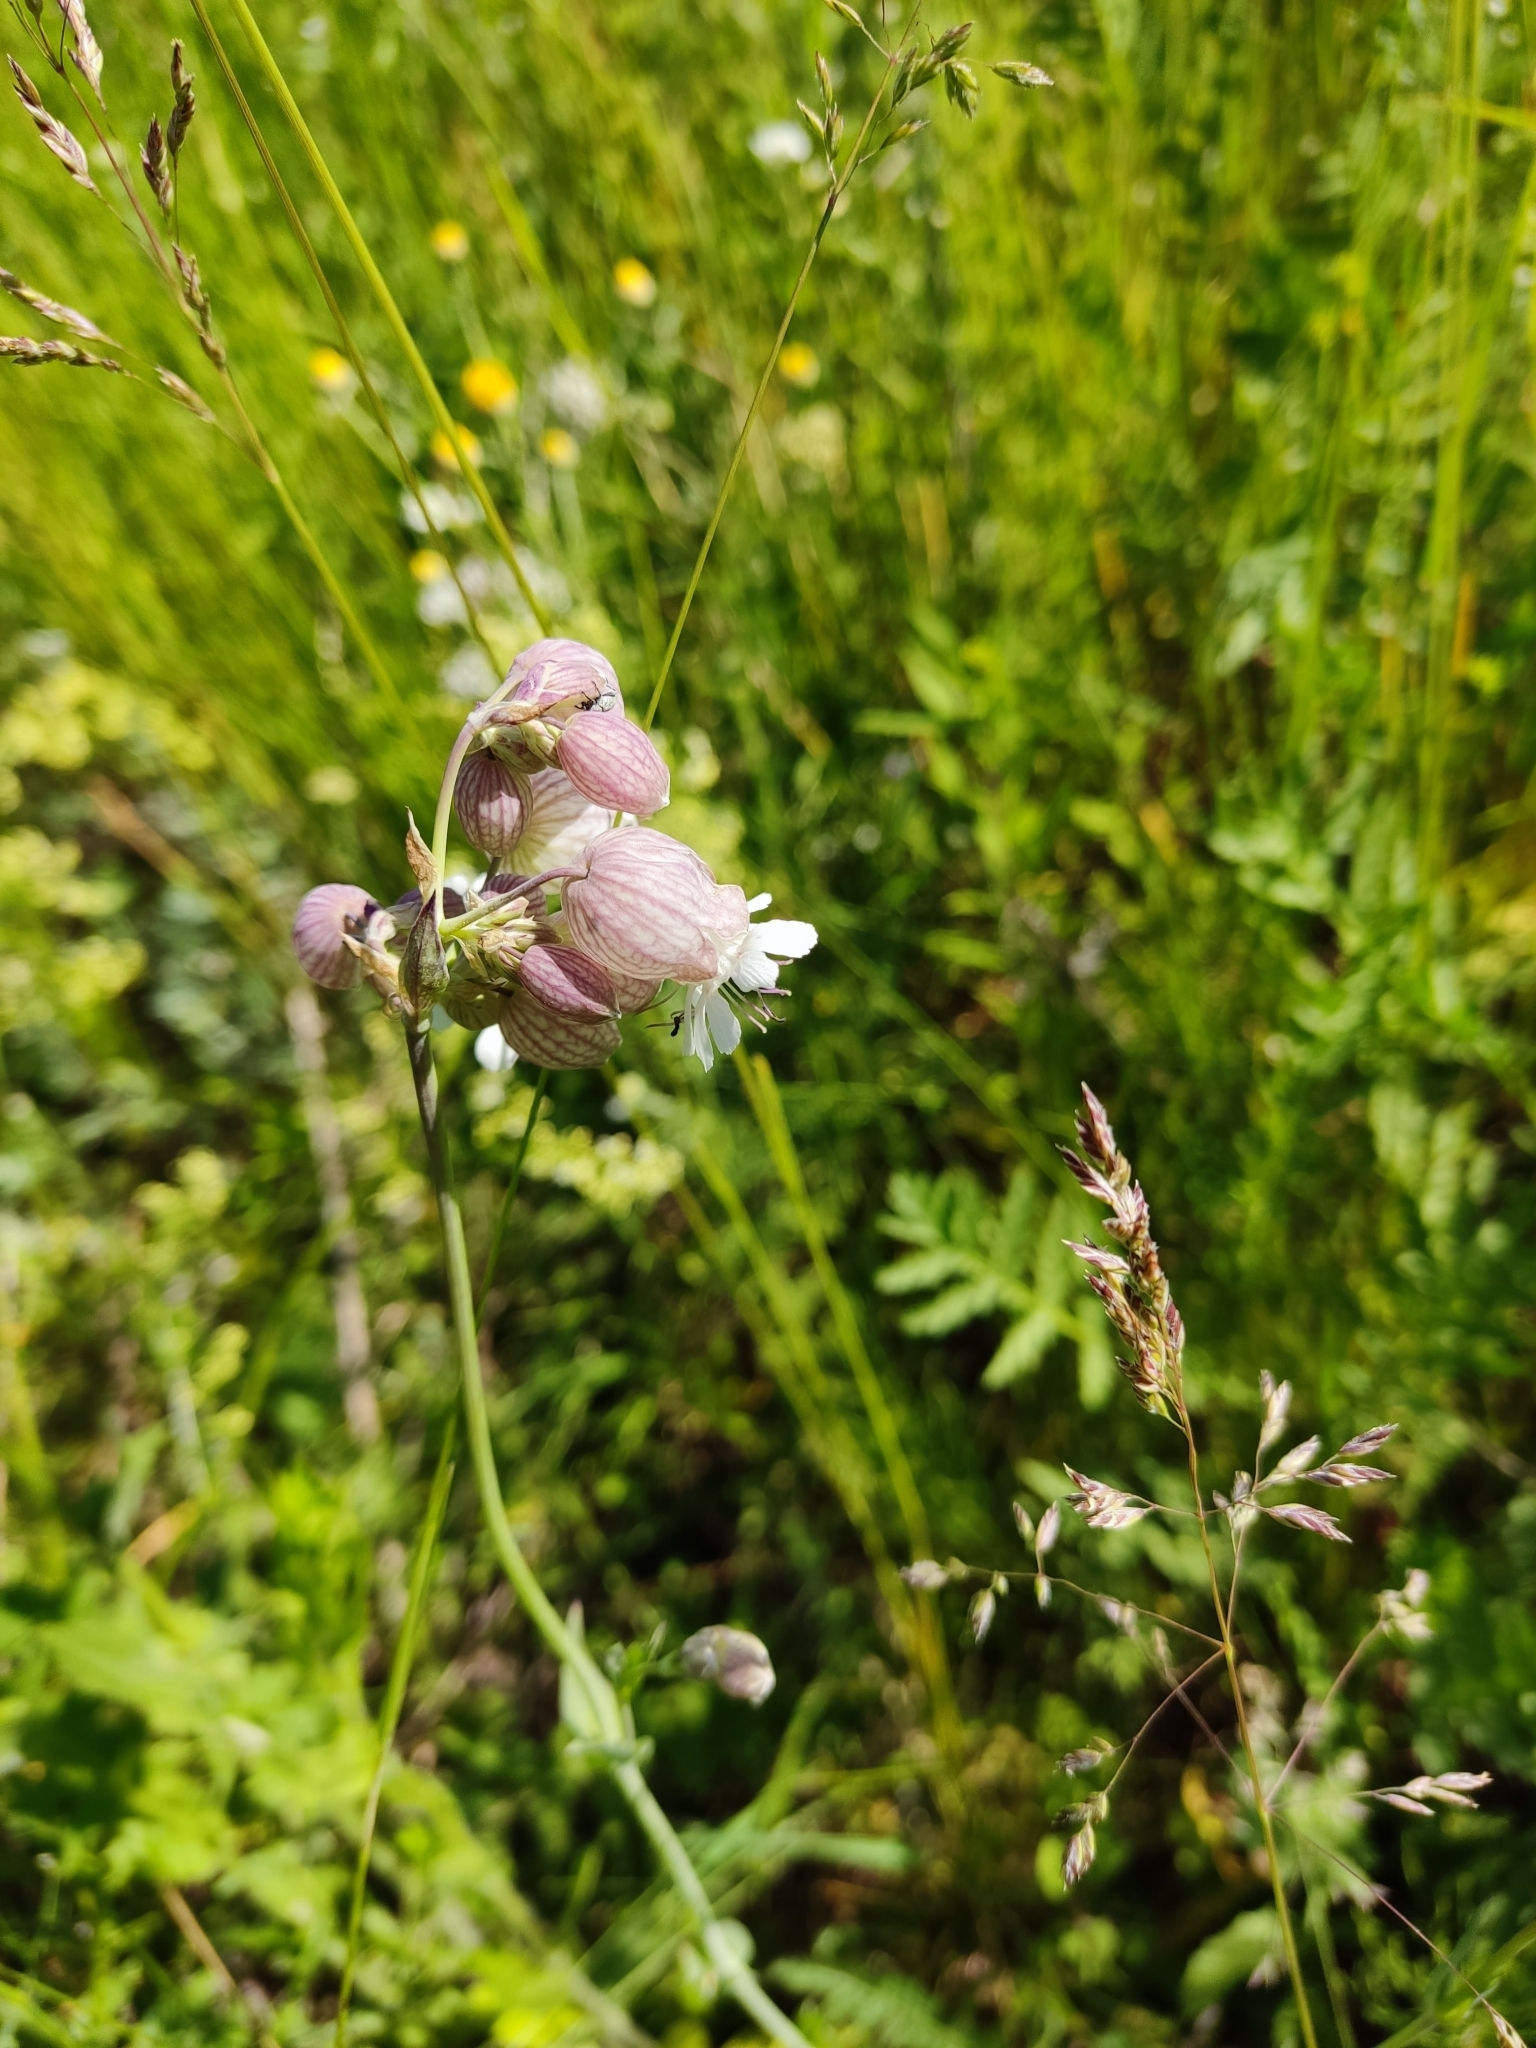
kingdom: Plantae
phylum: Tracheophyta
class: Magnoliopsida
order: Caryophyllales
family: Caryophyllaceae
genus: Silene
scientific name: Silene vulgaris
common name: Bladder campion
